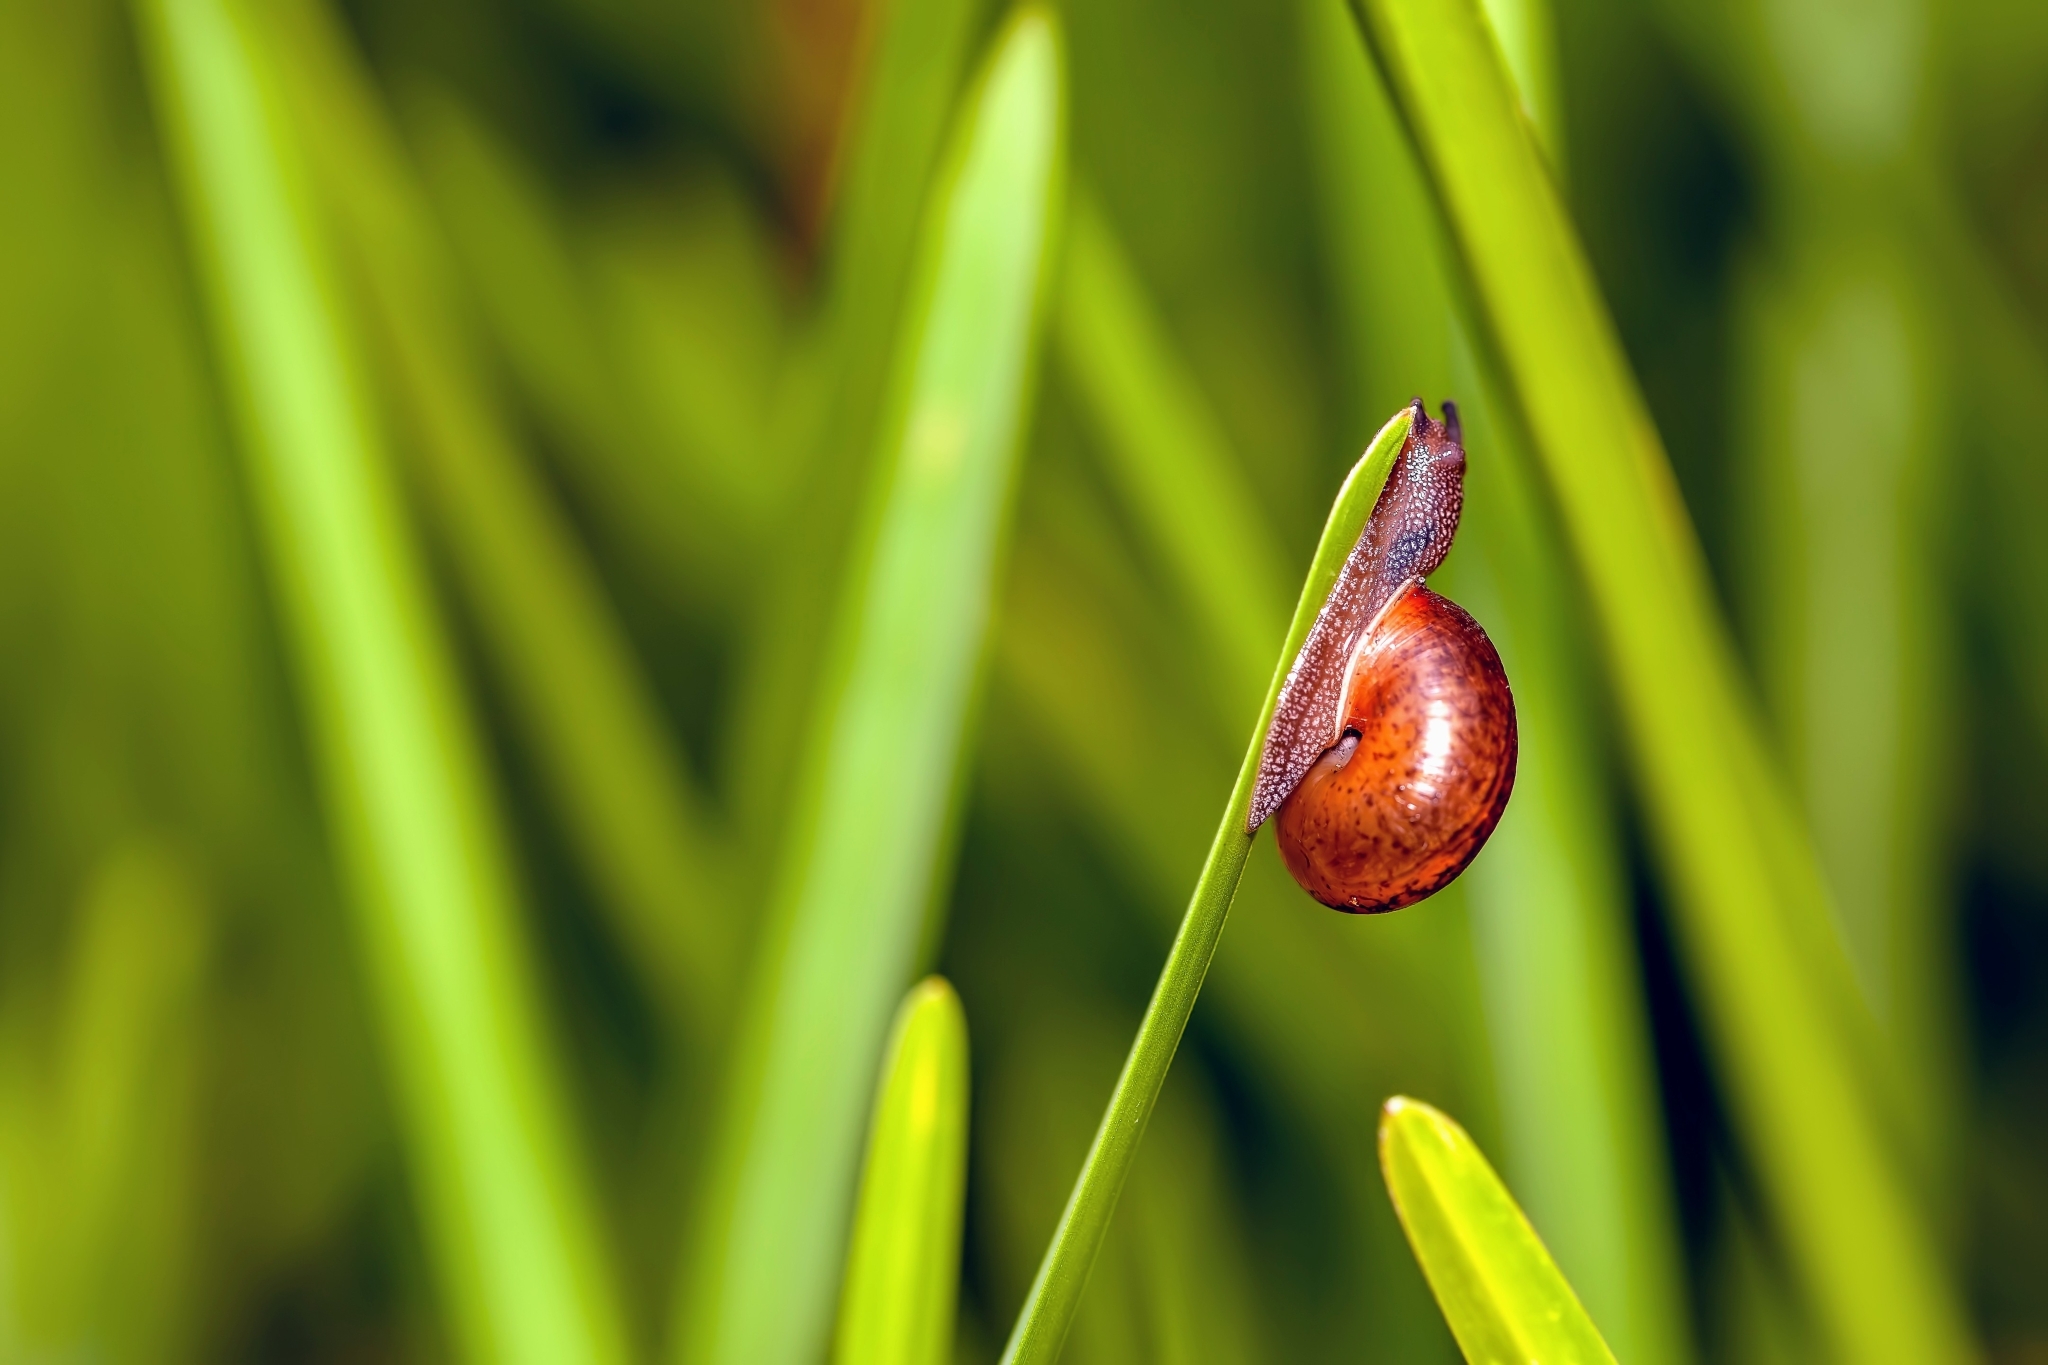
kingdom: Animalia
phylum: Mollusca
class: Gastropoda
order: Stylommatophora
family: Camaenidae
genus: Bradybaena
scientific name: Bradybaena similaris
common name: Asian trampsnail
